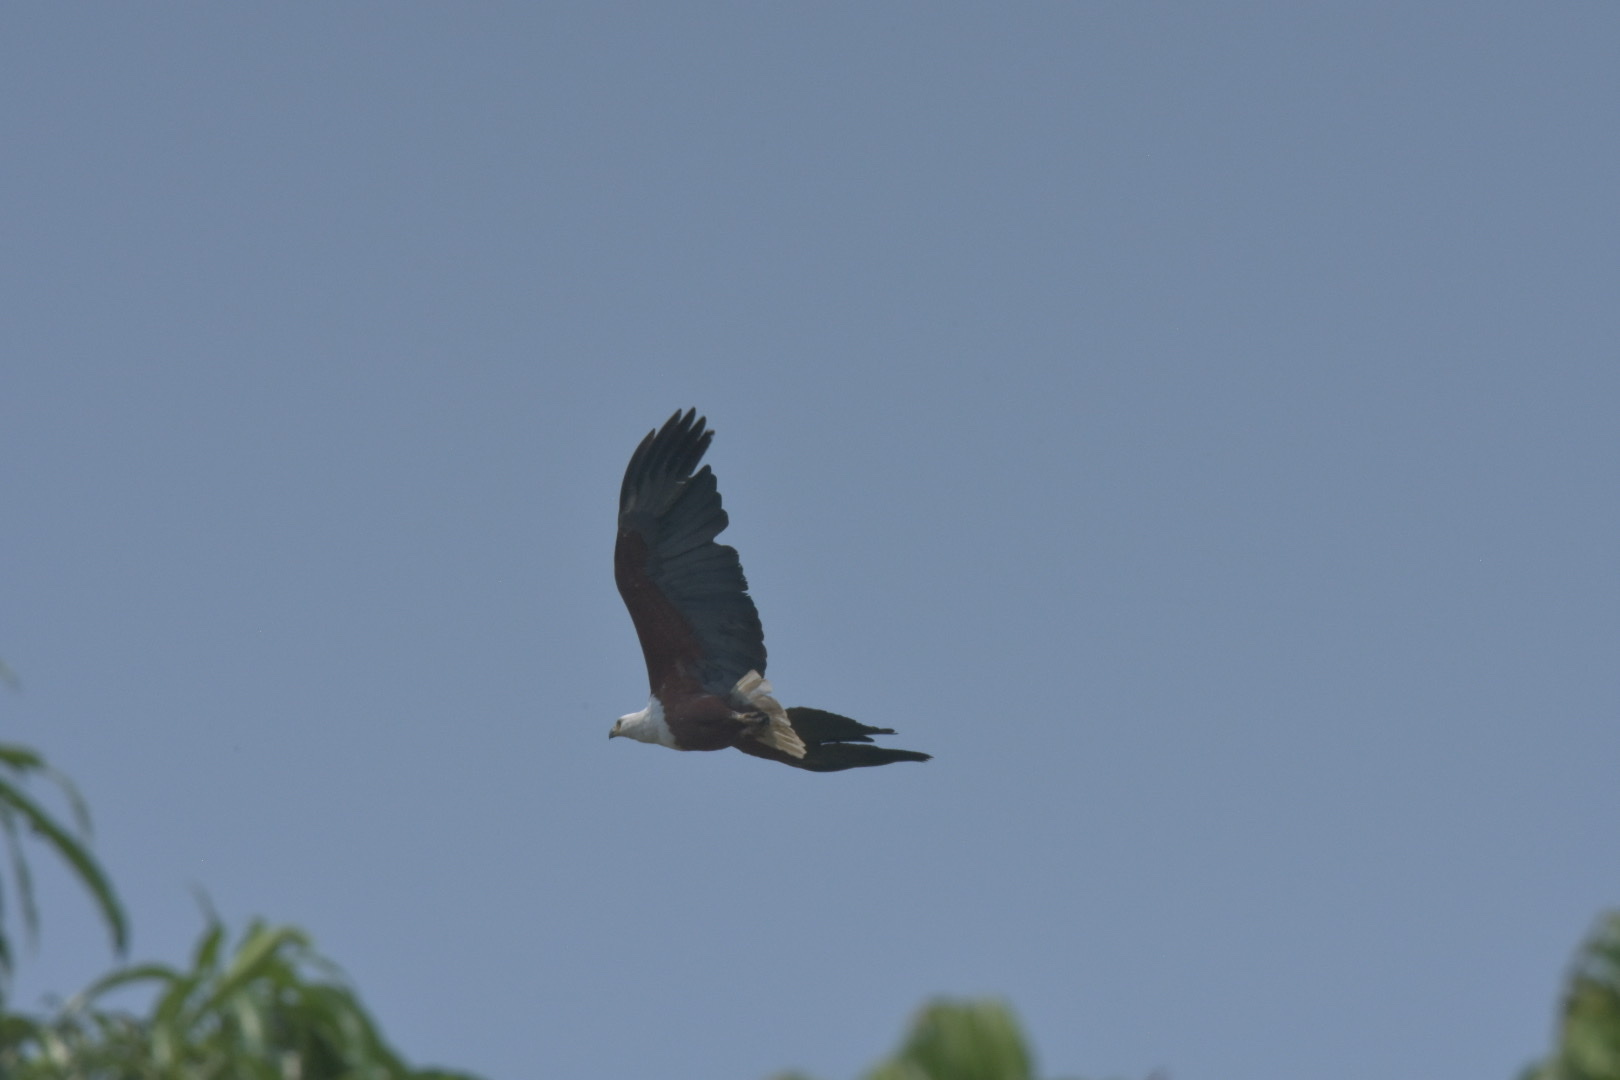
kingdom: Animalia
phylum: Chordata
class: Aves
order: Accipitriformes
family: Accipitridae
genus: Haliaeetus
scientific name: Haliaeetus vocifer
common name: African fish eagle
